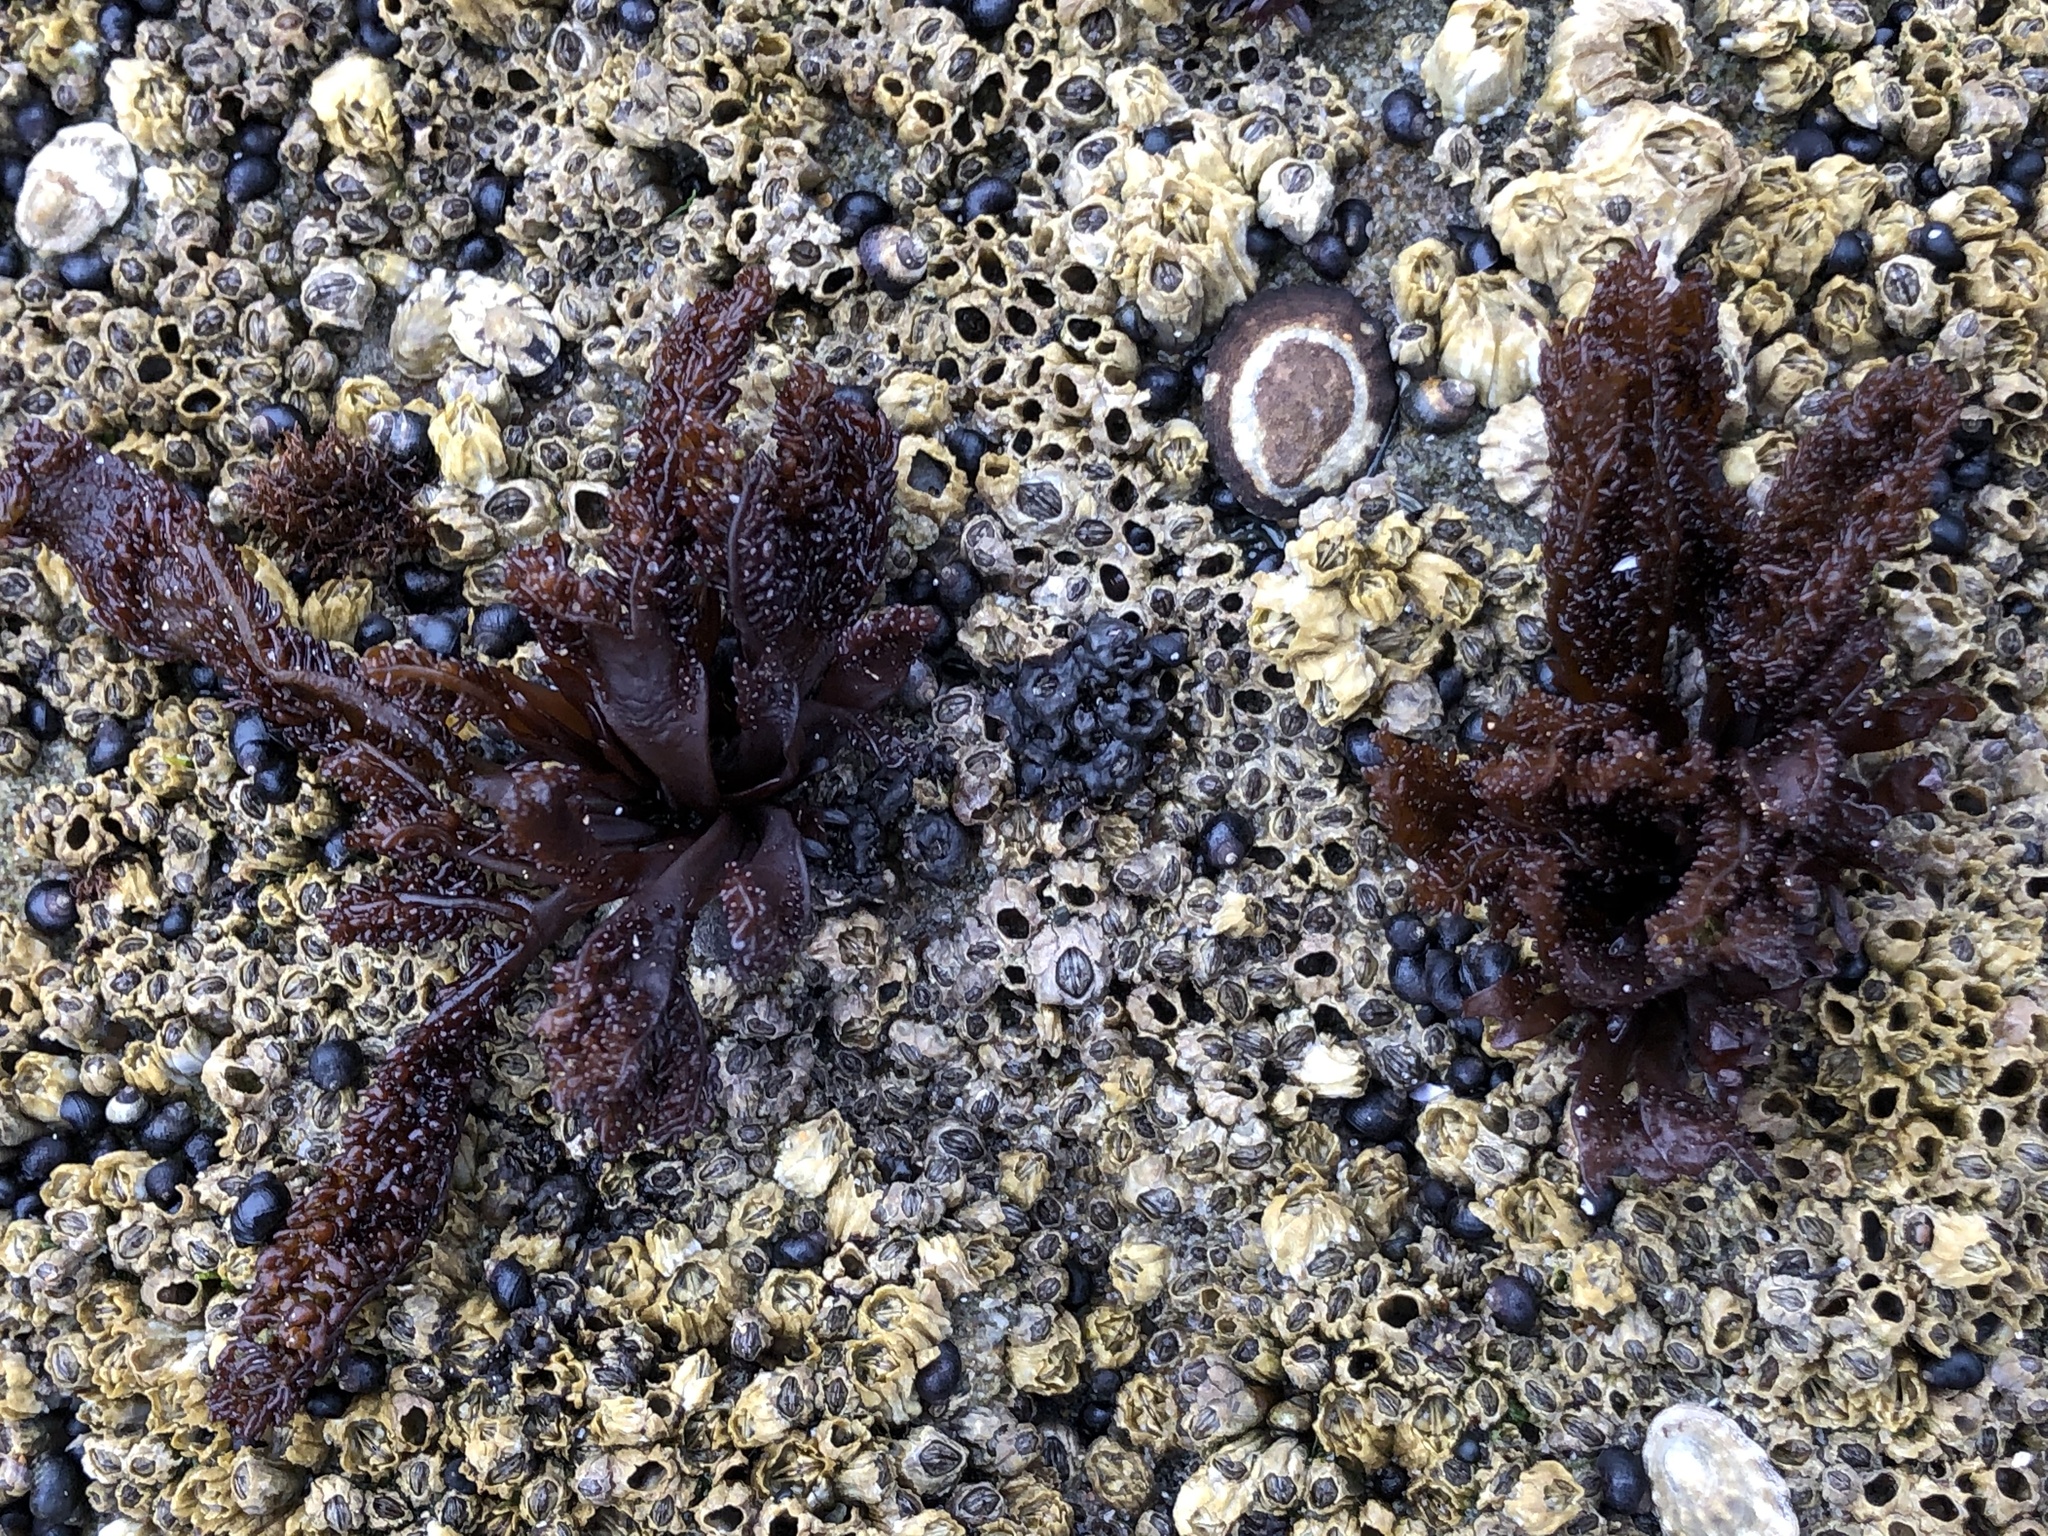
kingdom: Plantae
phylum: Rhodophyta
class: Florideophyceae
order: Gigartinales
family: Phyllophoraceae
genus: Mastocarpus
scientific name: Mastocarpus papillatus
